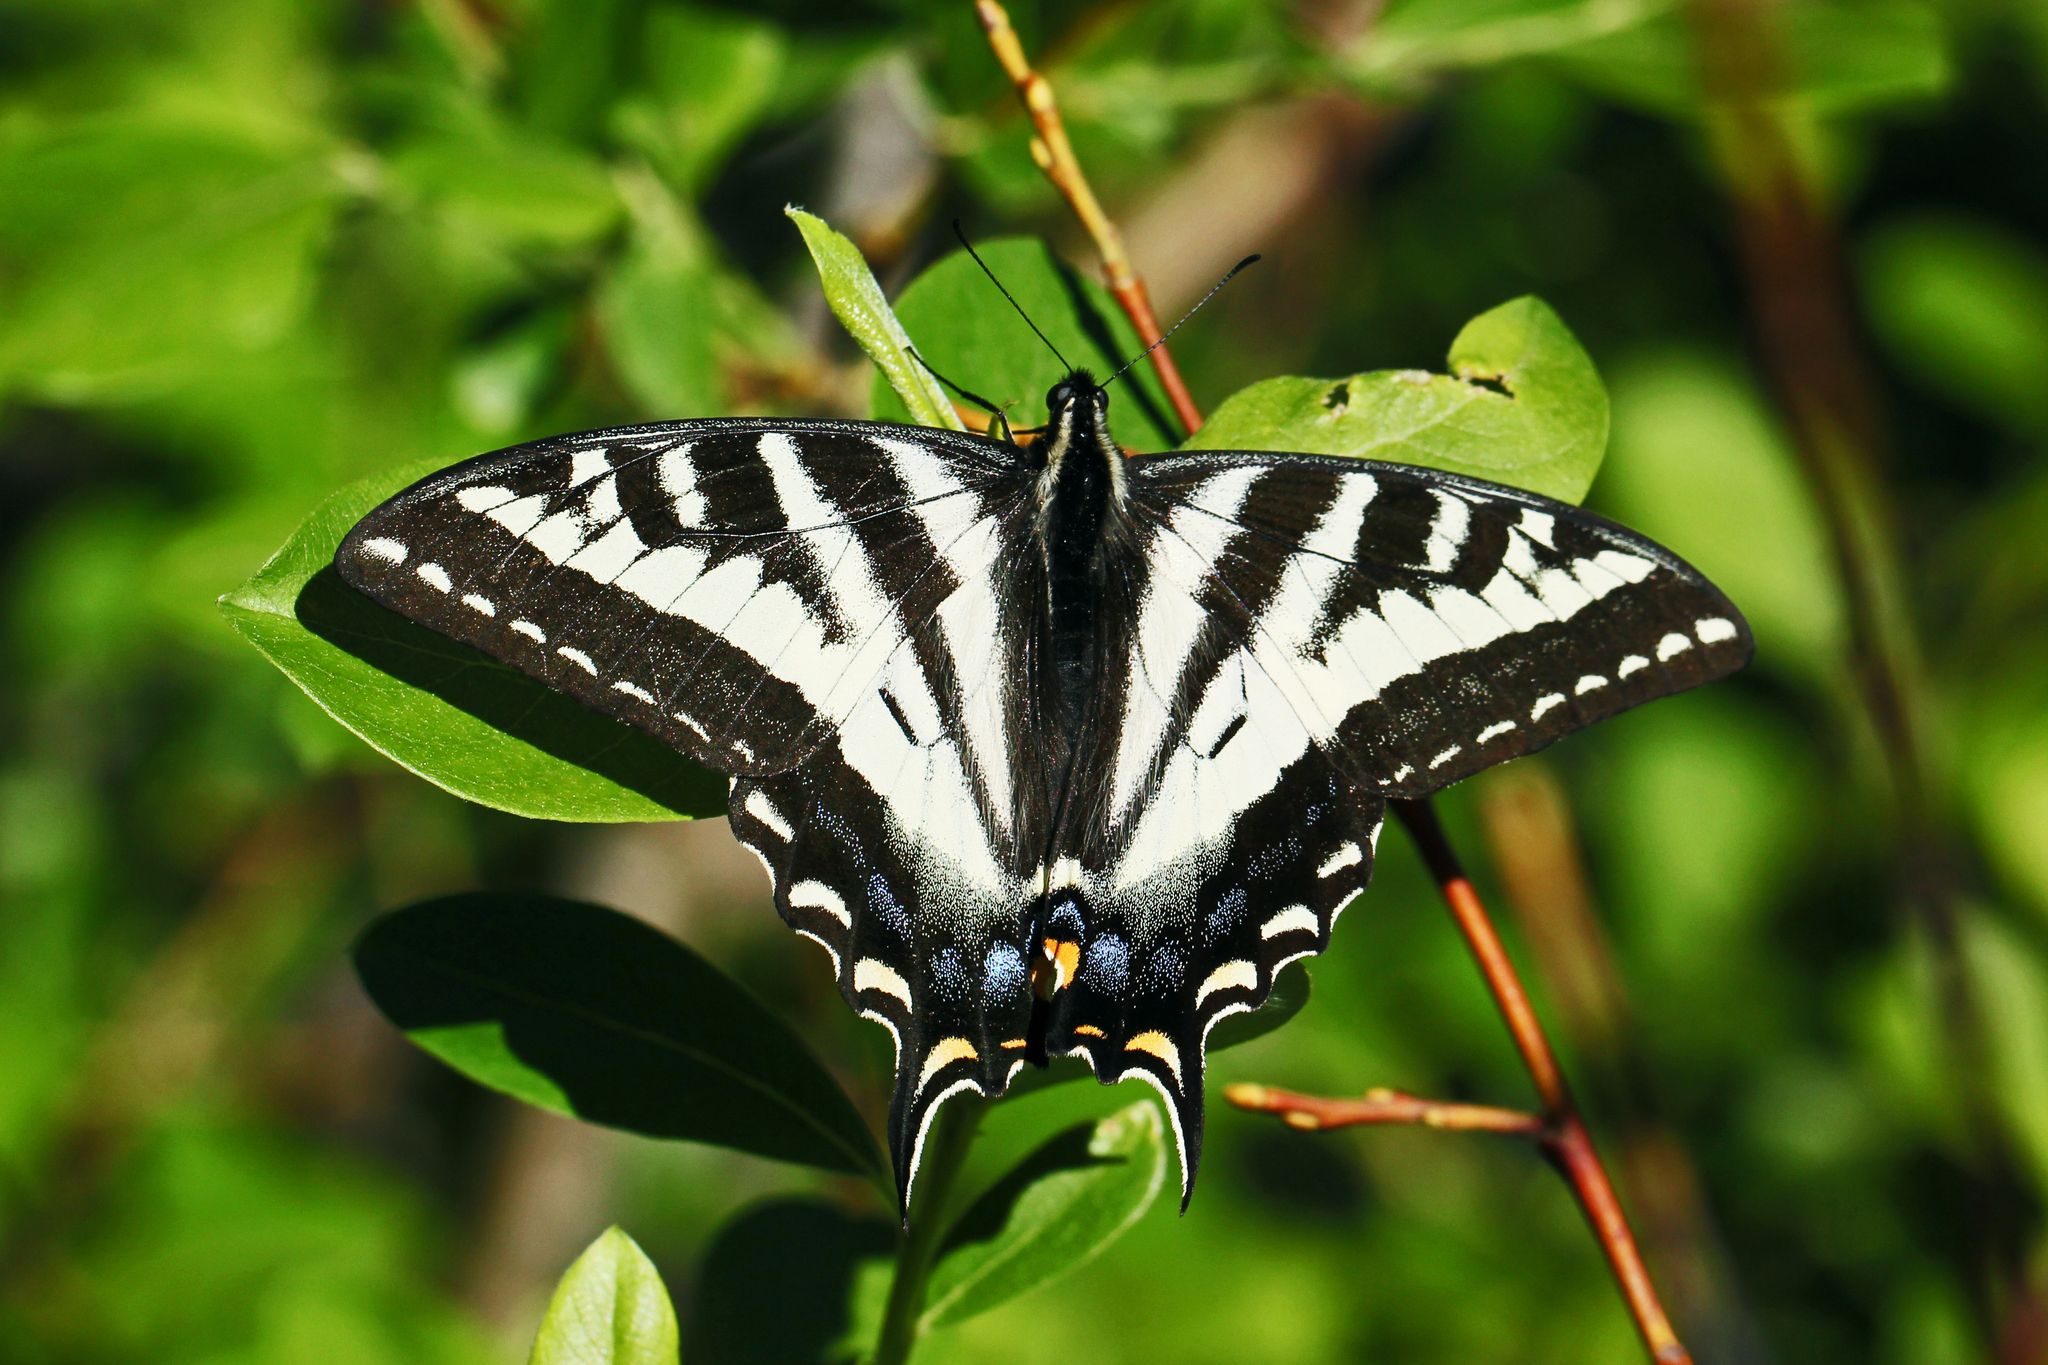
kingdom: Animalia
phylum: Arthropoda
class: Insecta
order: Lepidoptera
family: Papilionidae
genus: Papilio
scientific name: Papilio eurymedon
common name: Pale tiger swallowtail
